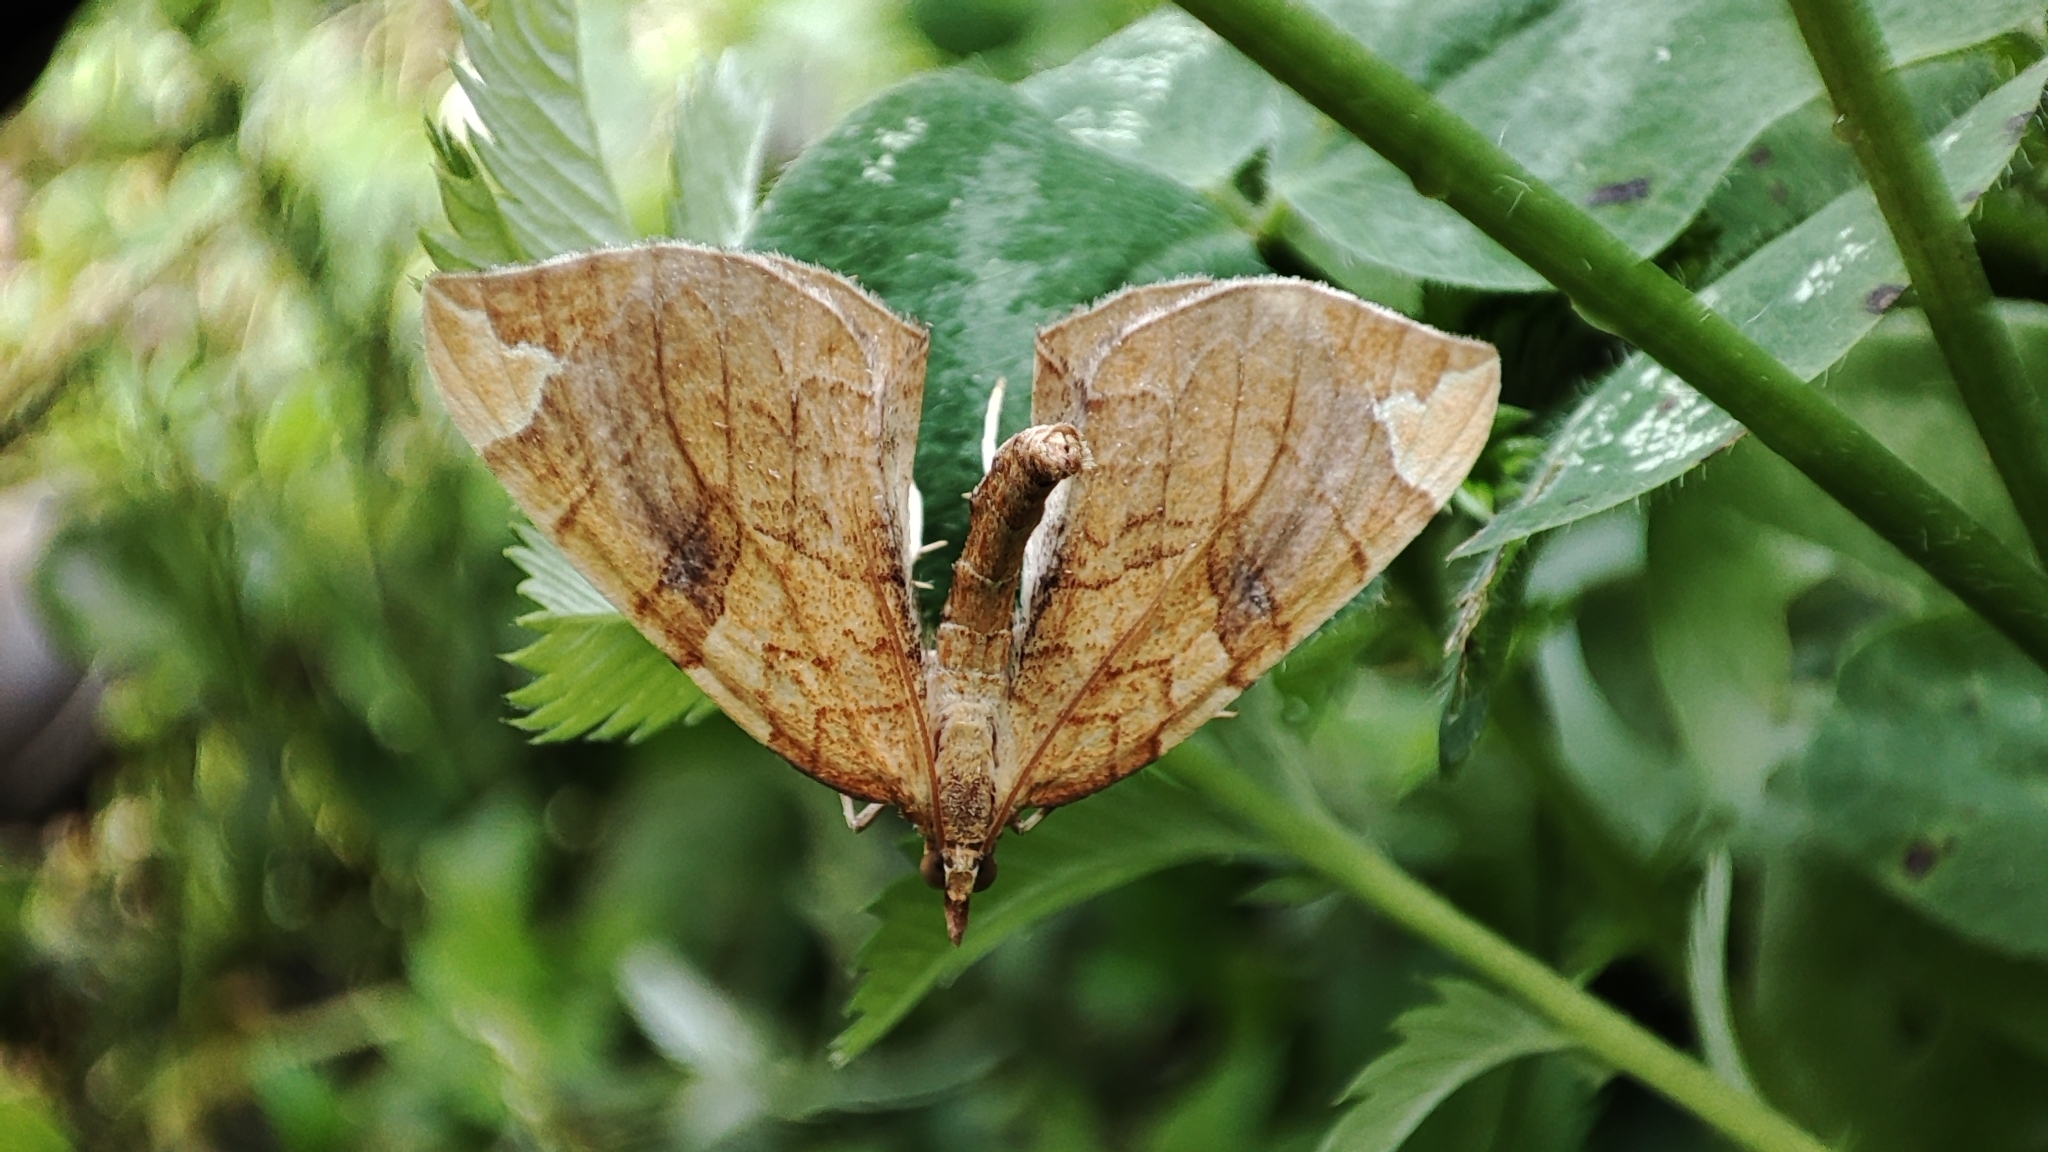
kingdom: Animalia
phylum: Arthropoda
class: Insecta
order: Lepidoptera
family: Geometridae
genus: Eulithis
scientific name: Eulithis achatinellaria
